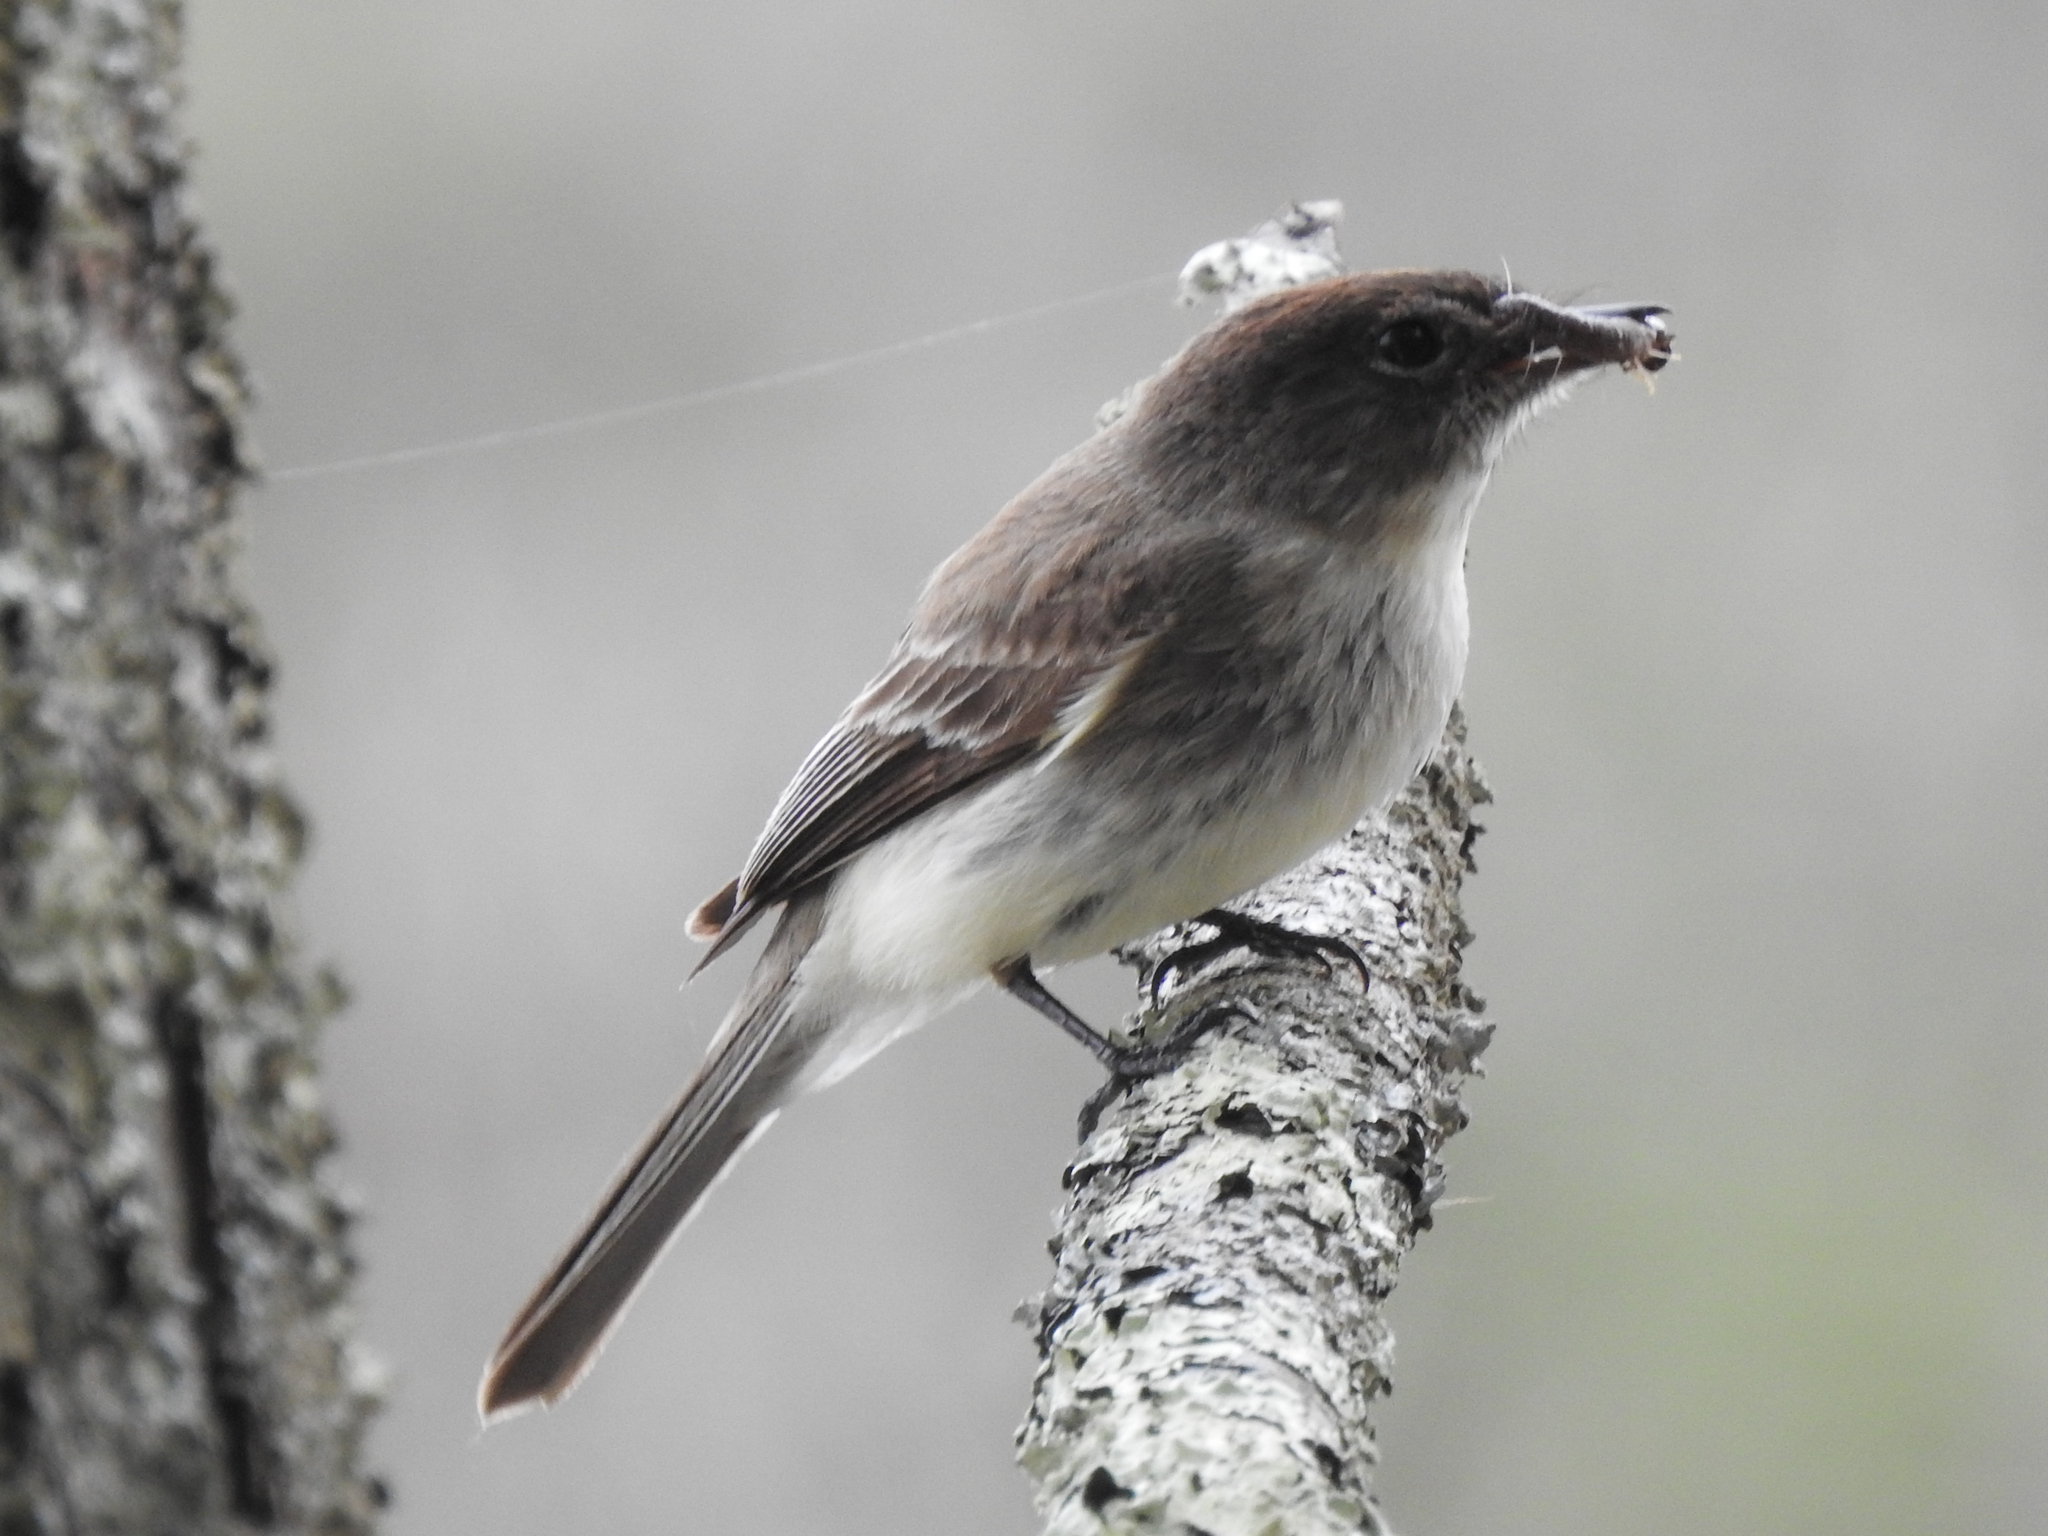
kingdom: Animalia
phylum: Chordata
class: Aves
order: Passeriformes
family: Tyrannidae
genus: Sayornis
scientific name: Sayornis phoebe
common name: Eastern phoebe
